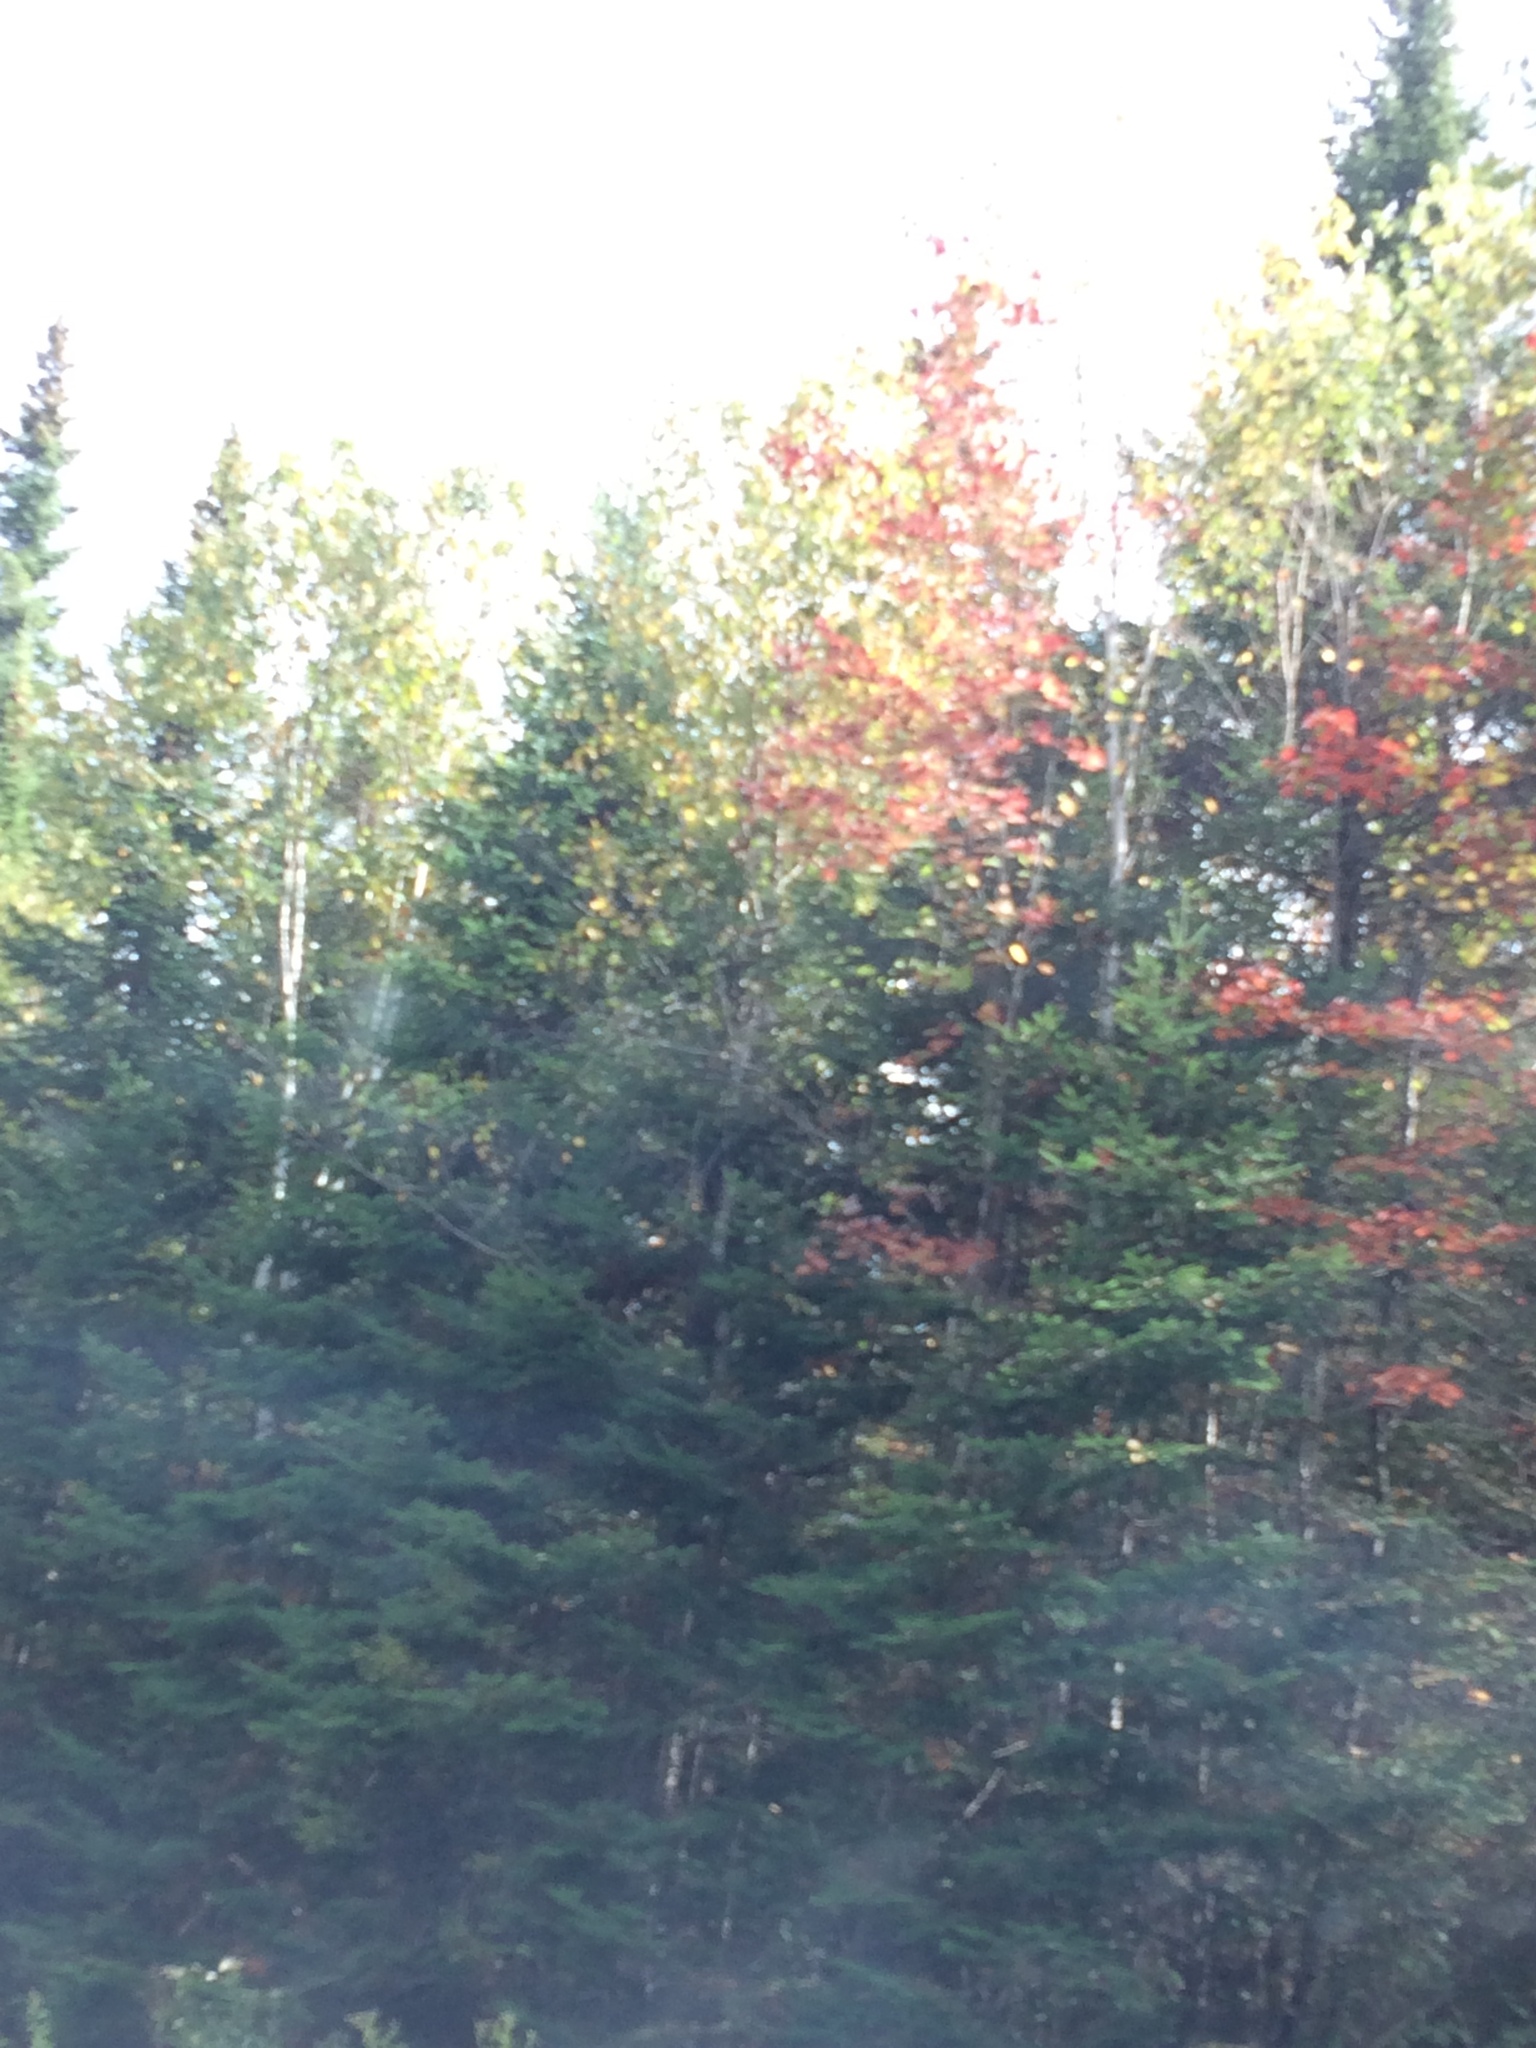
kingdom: Plantae
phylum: Tracheophyta
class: Pinopsida
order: Pinales
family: Pinaceae
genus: Abies
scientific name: Abies balsamea
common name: Balsam fir
